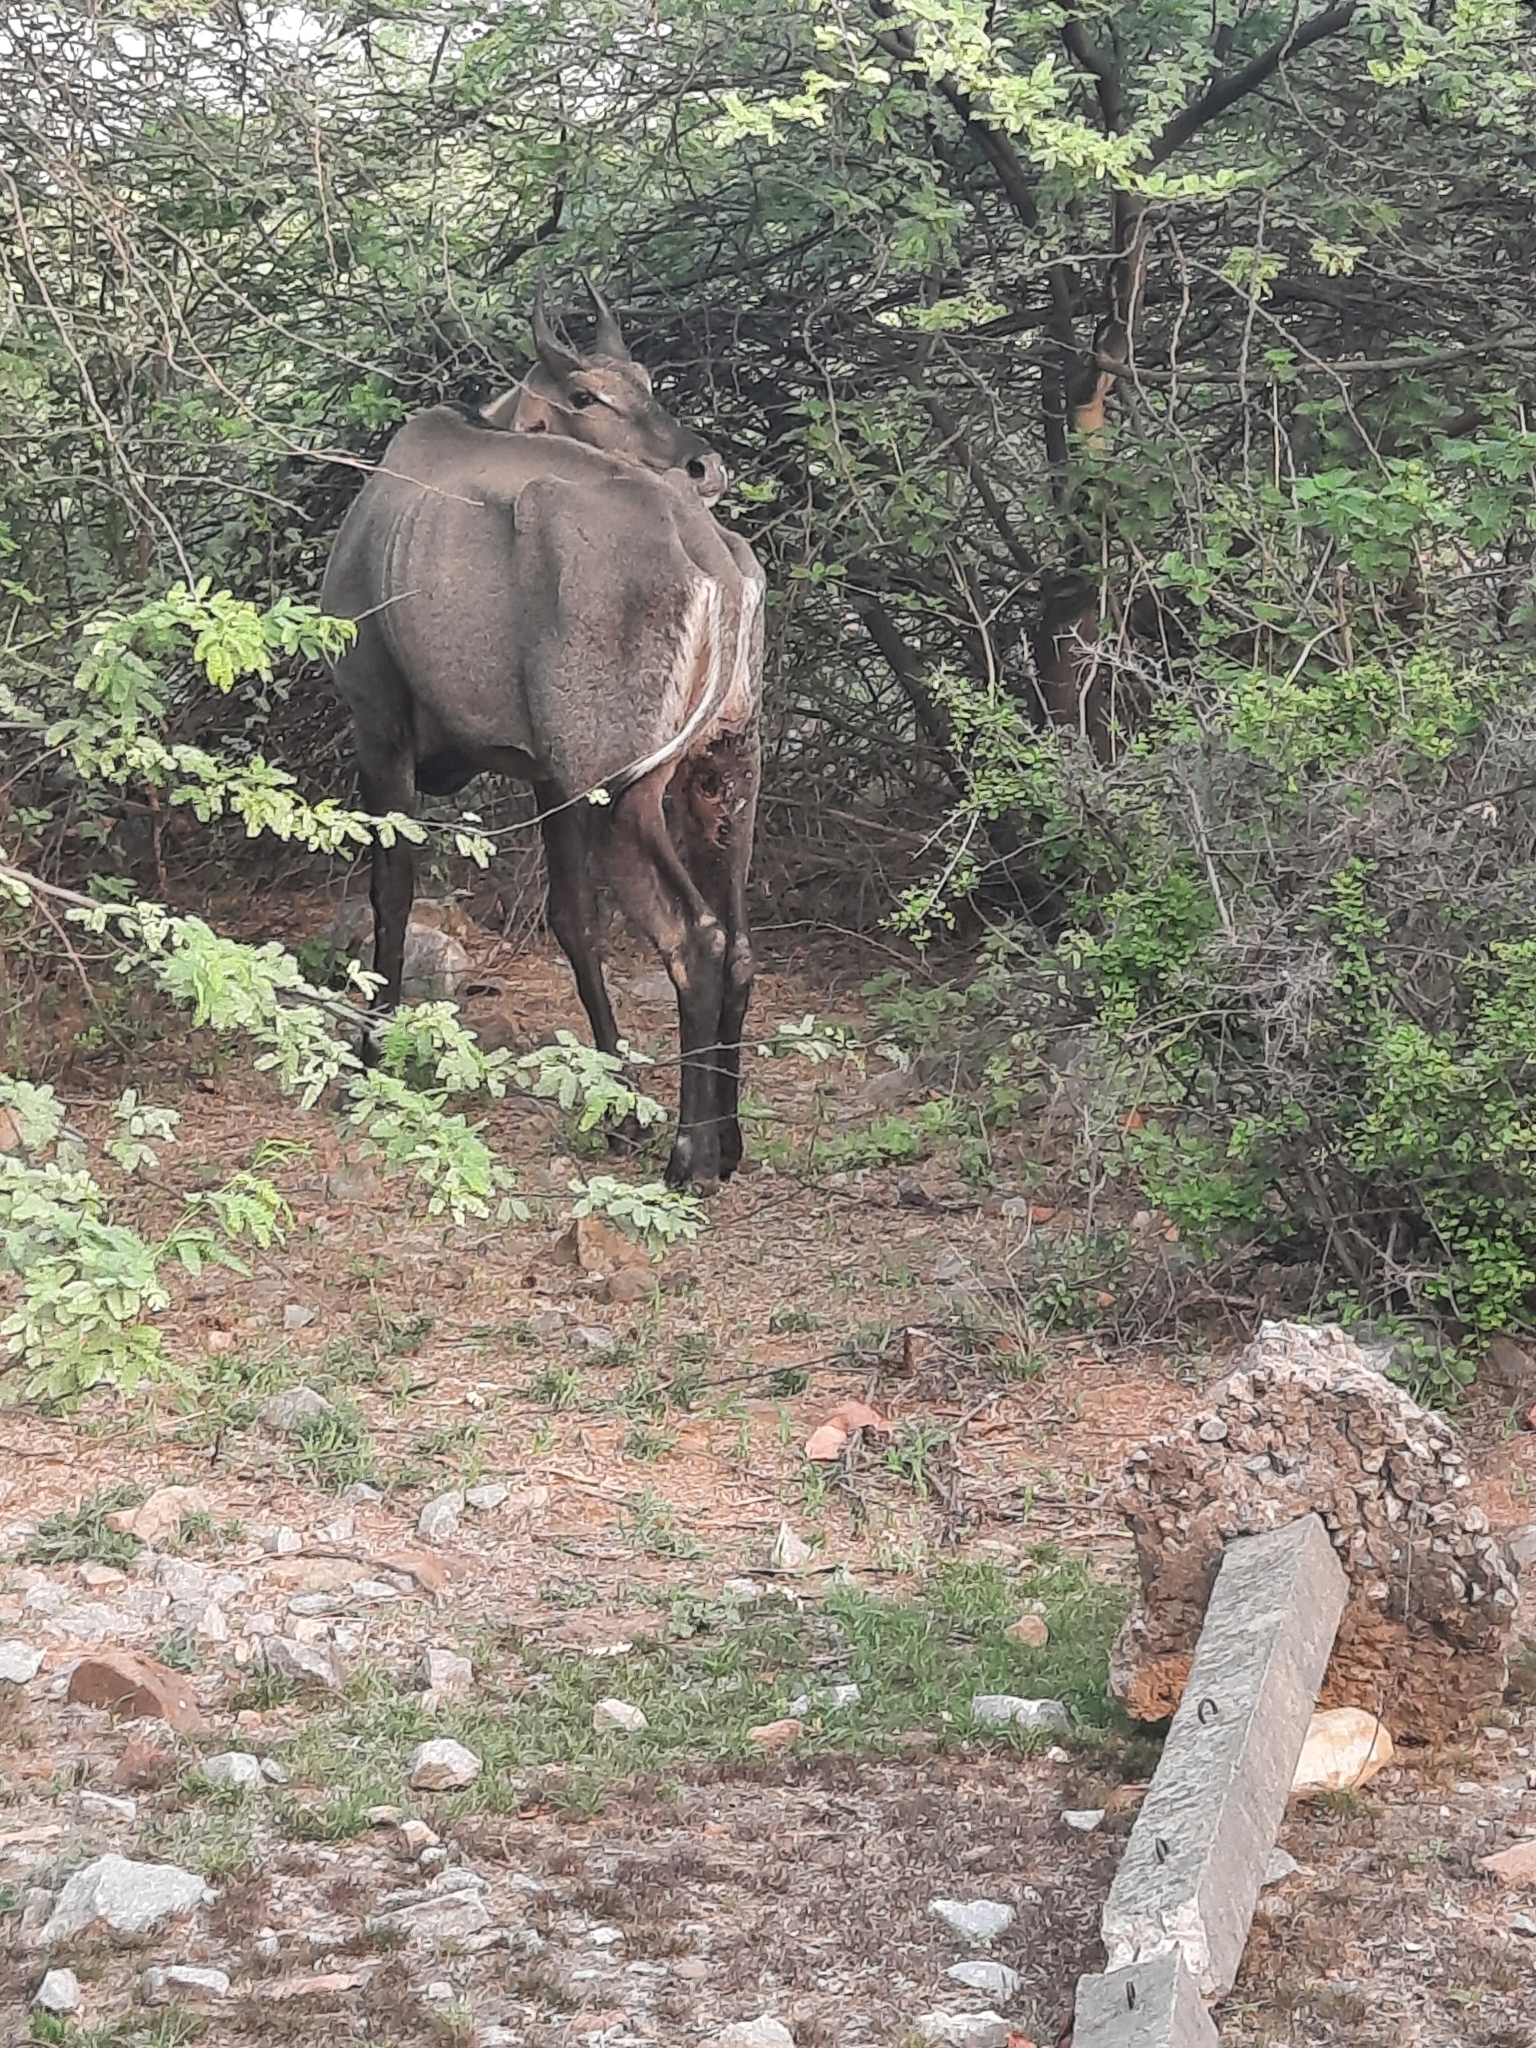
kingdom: Animalia
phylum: Chordata
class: Mammalia
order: Artiodactyla
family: Bovidae
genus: Boselaphus
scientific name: Boselaphus tragocamelus
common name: Nilgai
